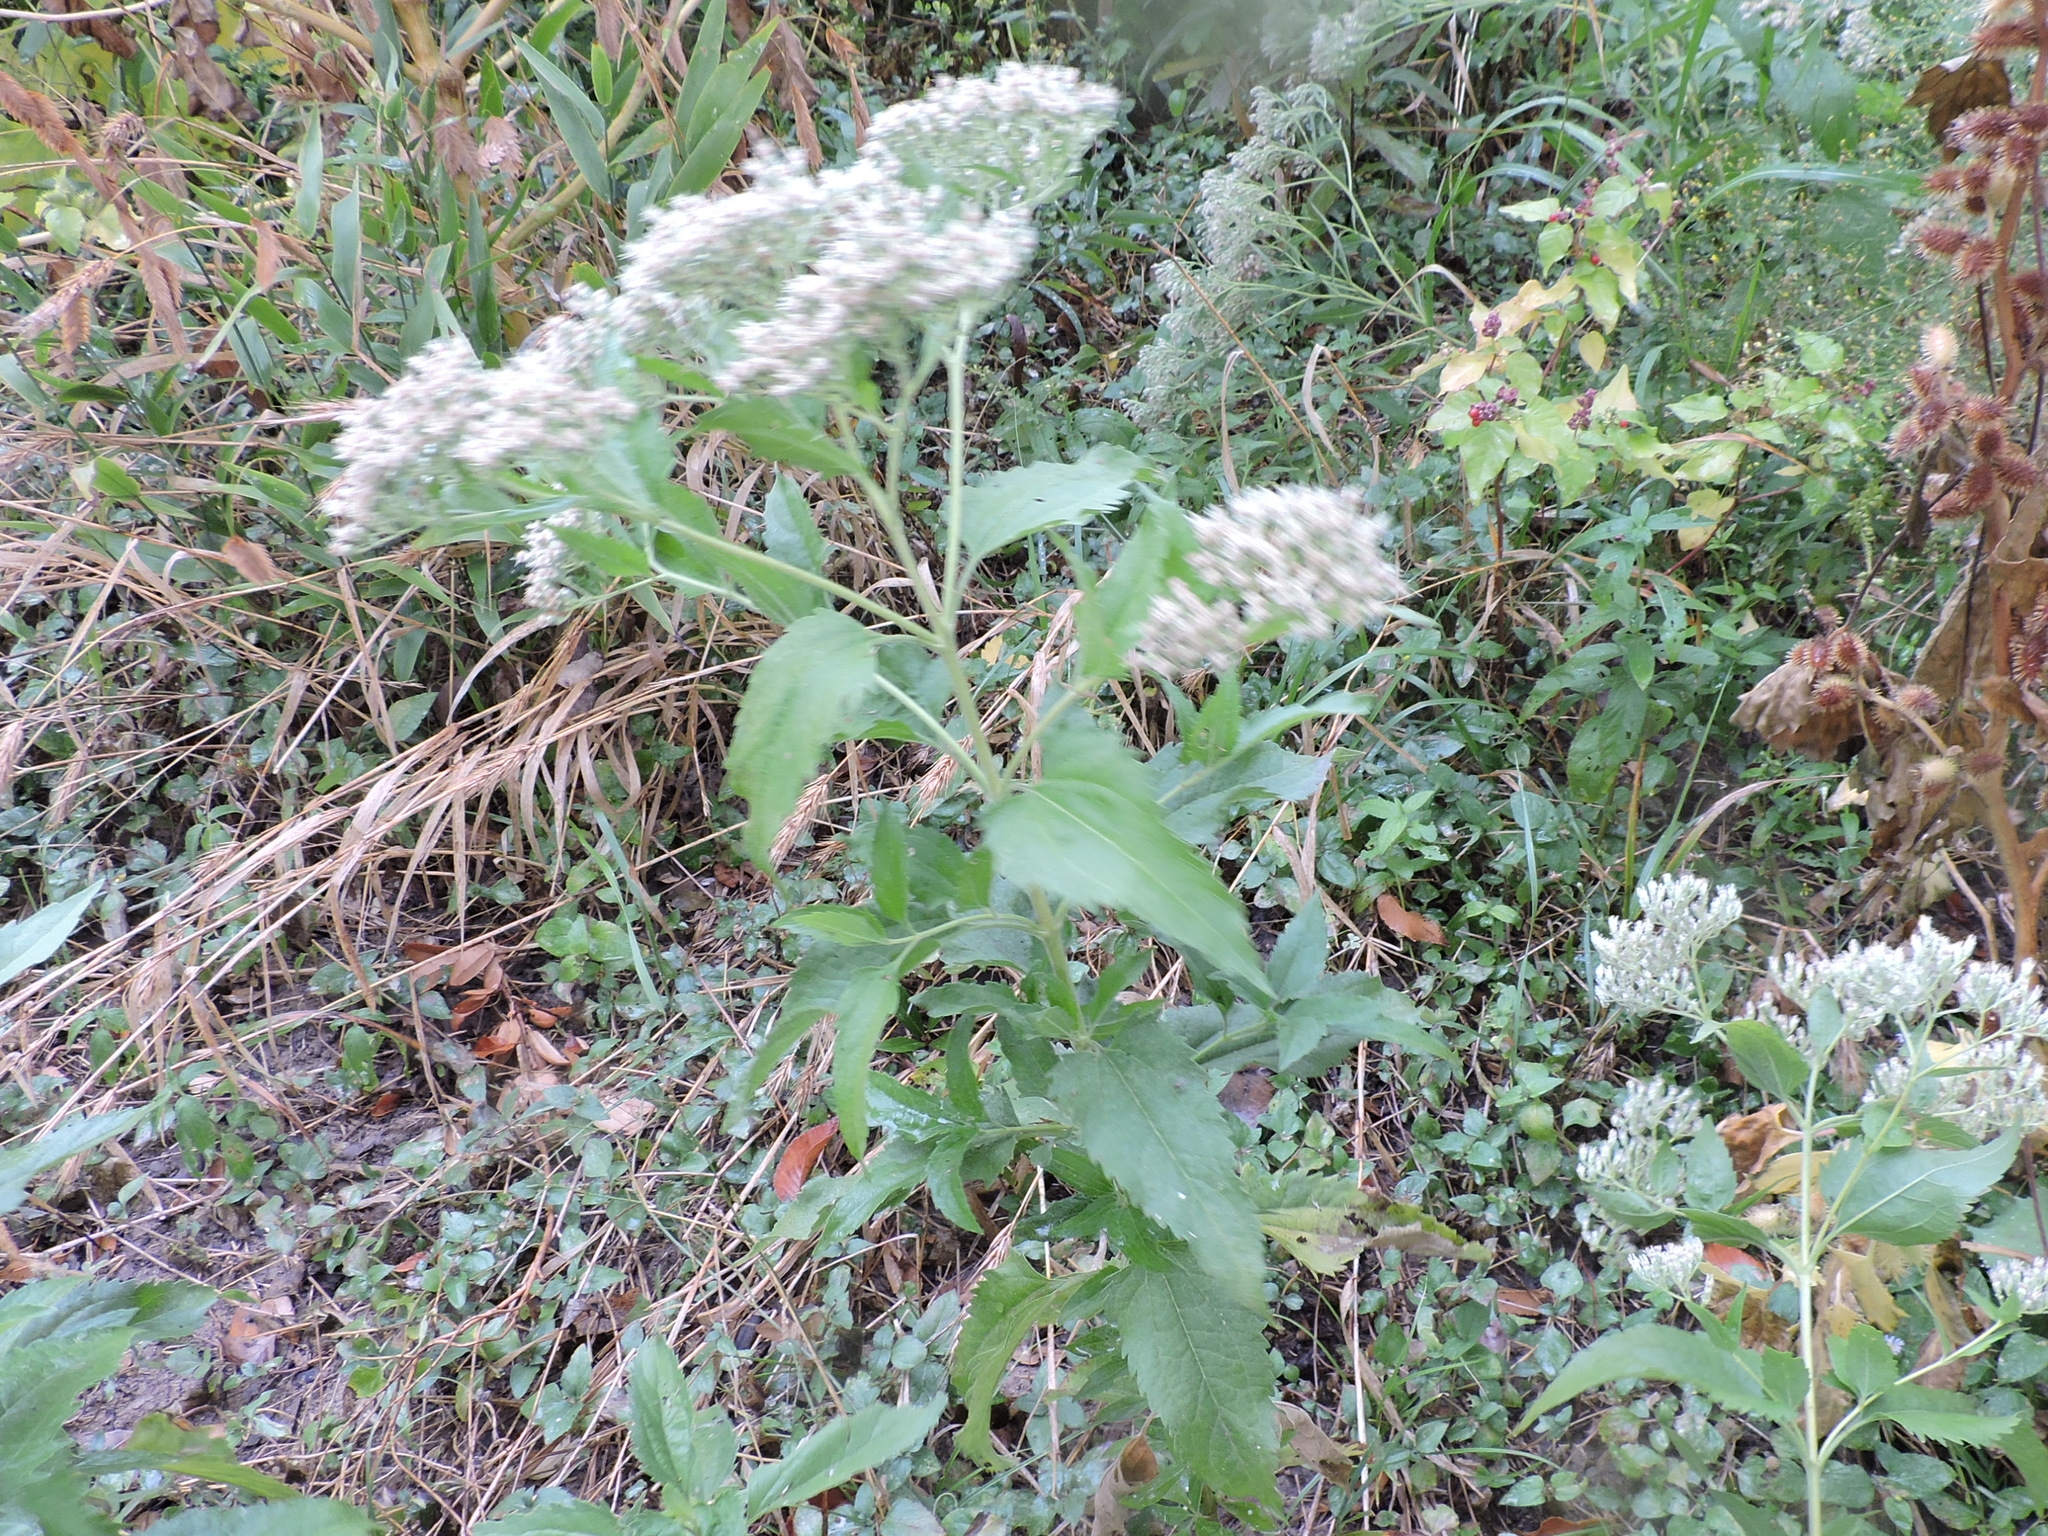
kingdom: Plantae
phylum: Tracheophyta
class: Magnoliopsida
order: Asterales
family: Asteraceae
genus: Eupatorium
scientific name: Eupatorium serotinum
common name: Late boneset
